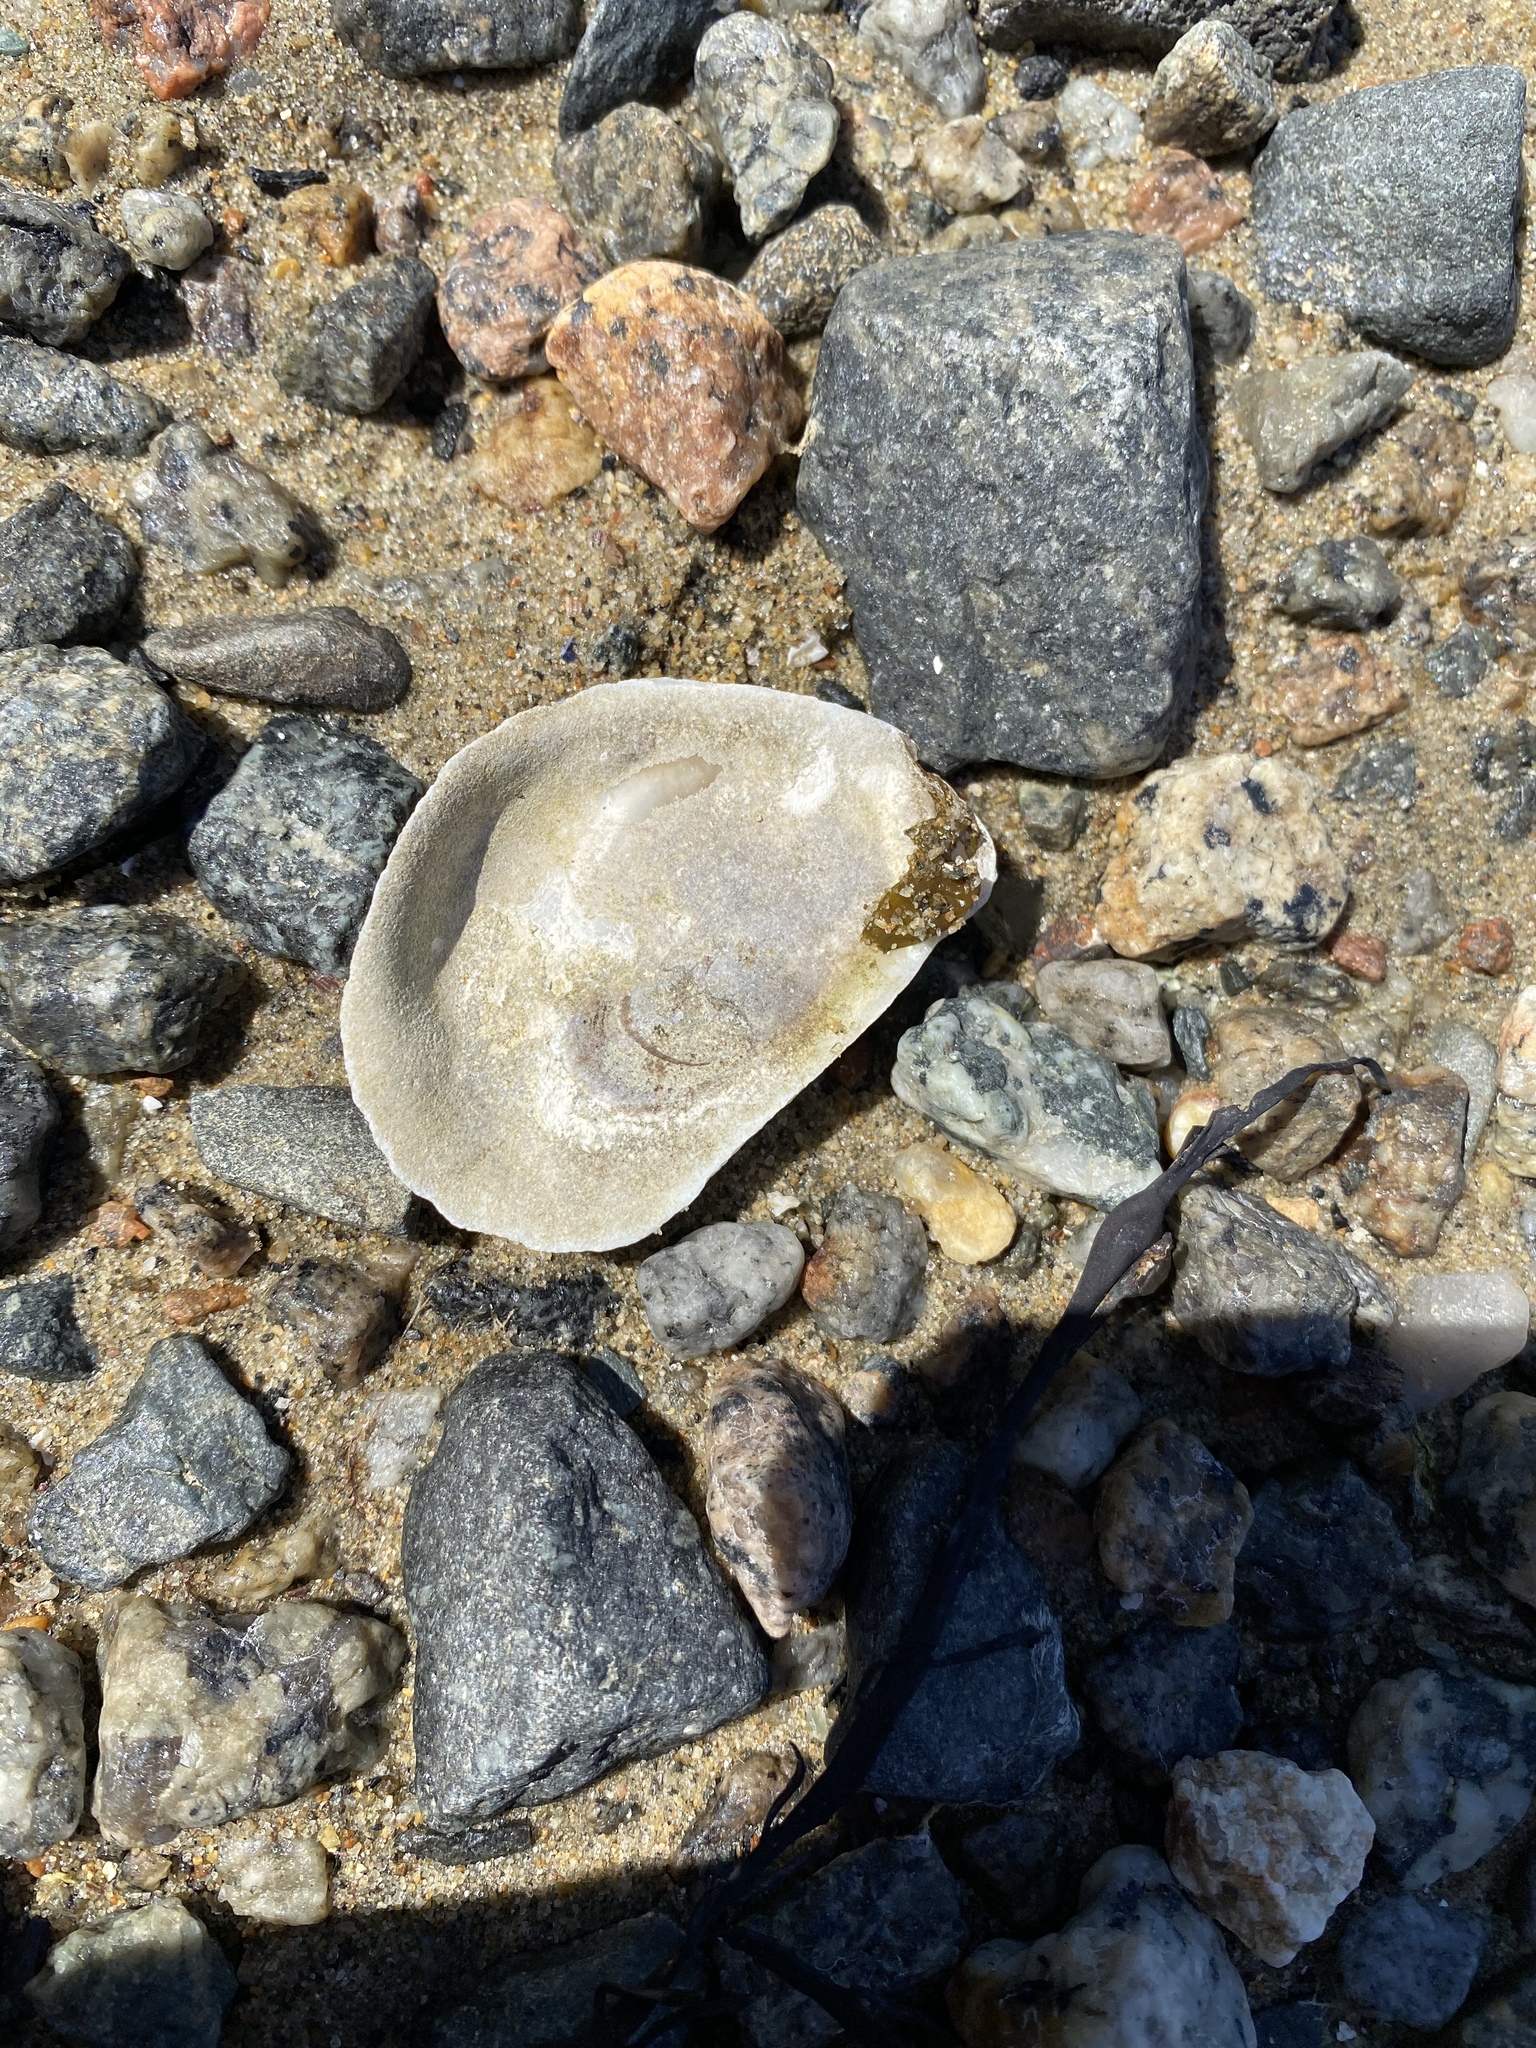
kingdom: Animalia
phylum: Mollusca
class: Bivalvia
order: Ostreida
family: Ostreidae
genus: Crassostrea
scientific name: Crassostrea virginica
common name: American oyster
